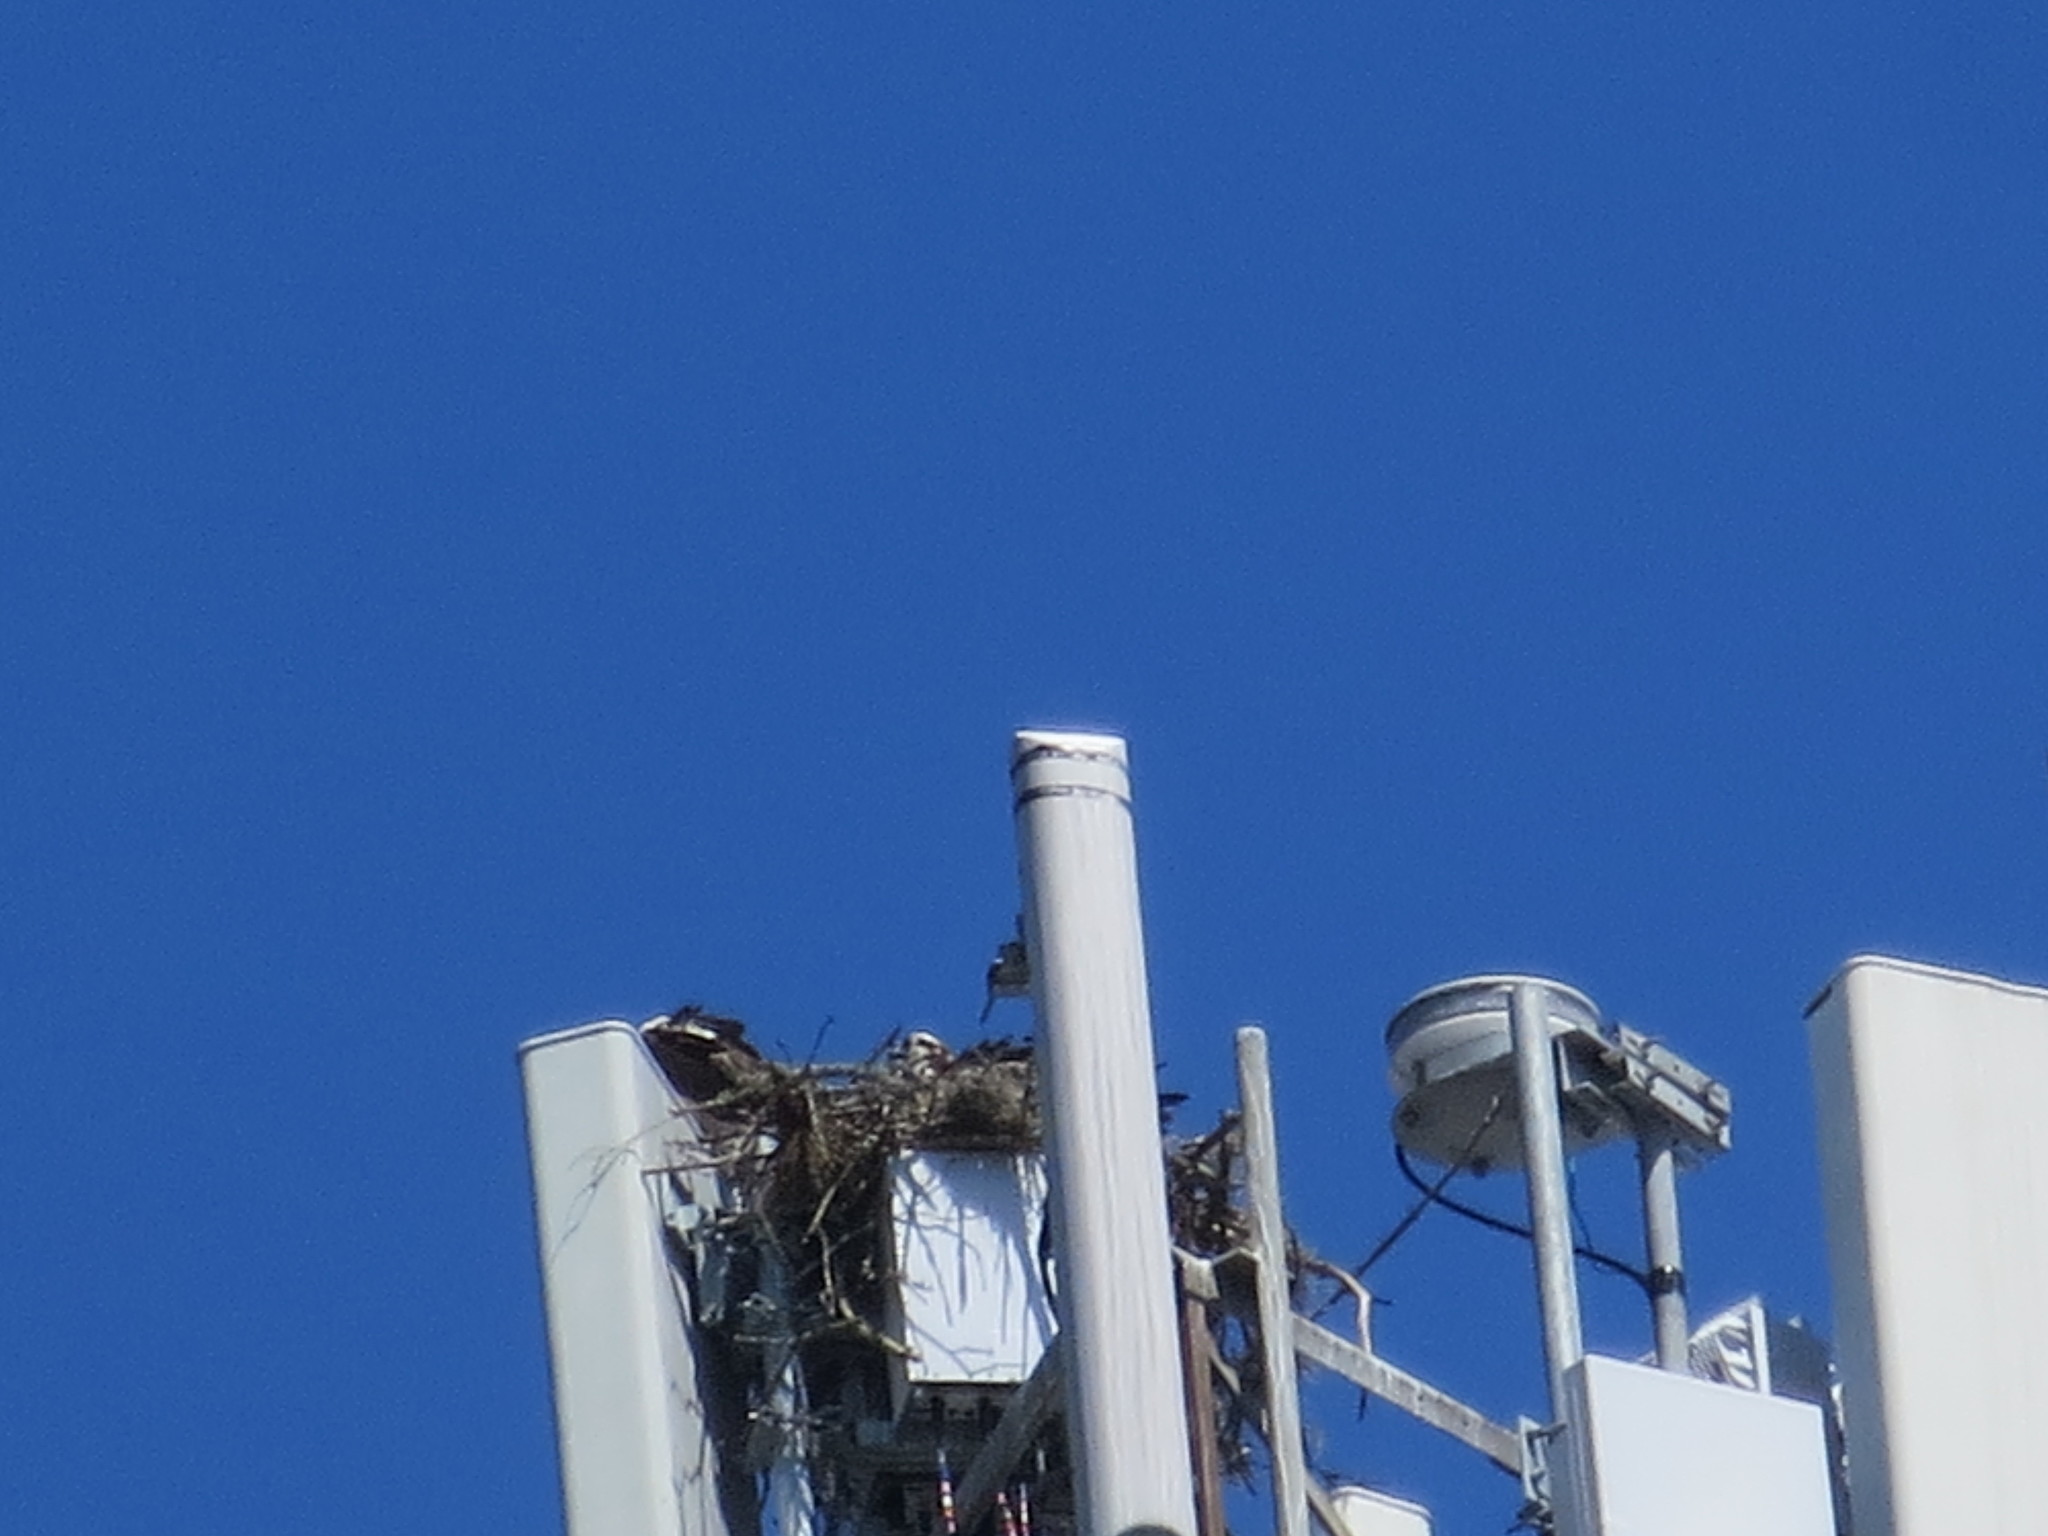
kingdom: Animalia
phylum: Chordata
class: Aves
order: Accipitriformes
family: Pandionidae
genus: Pandion
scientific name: Pandion haliaetus
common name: Osprey
